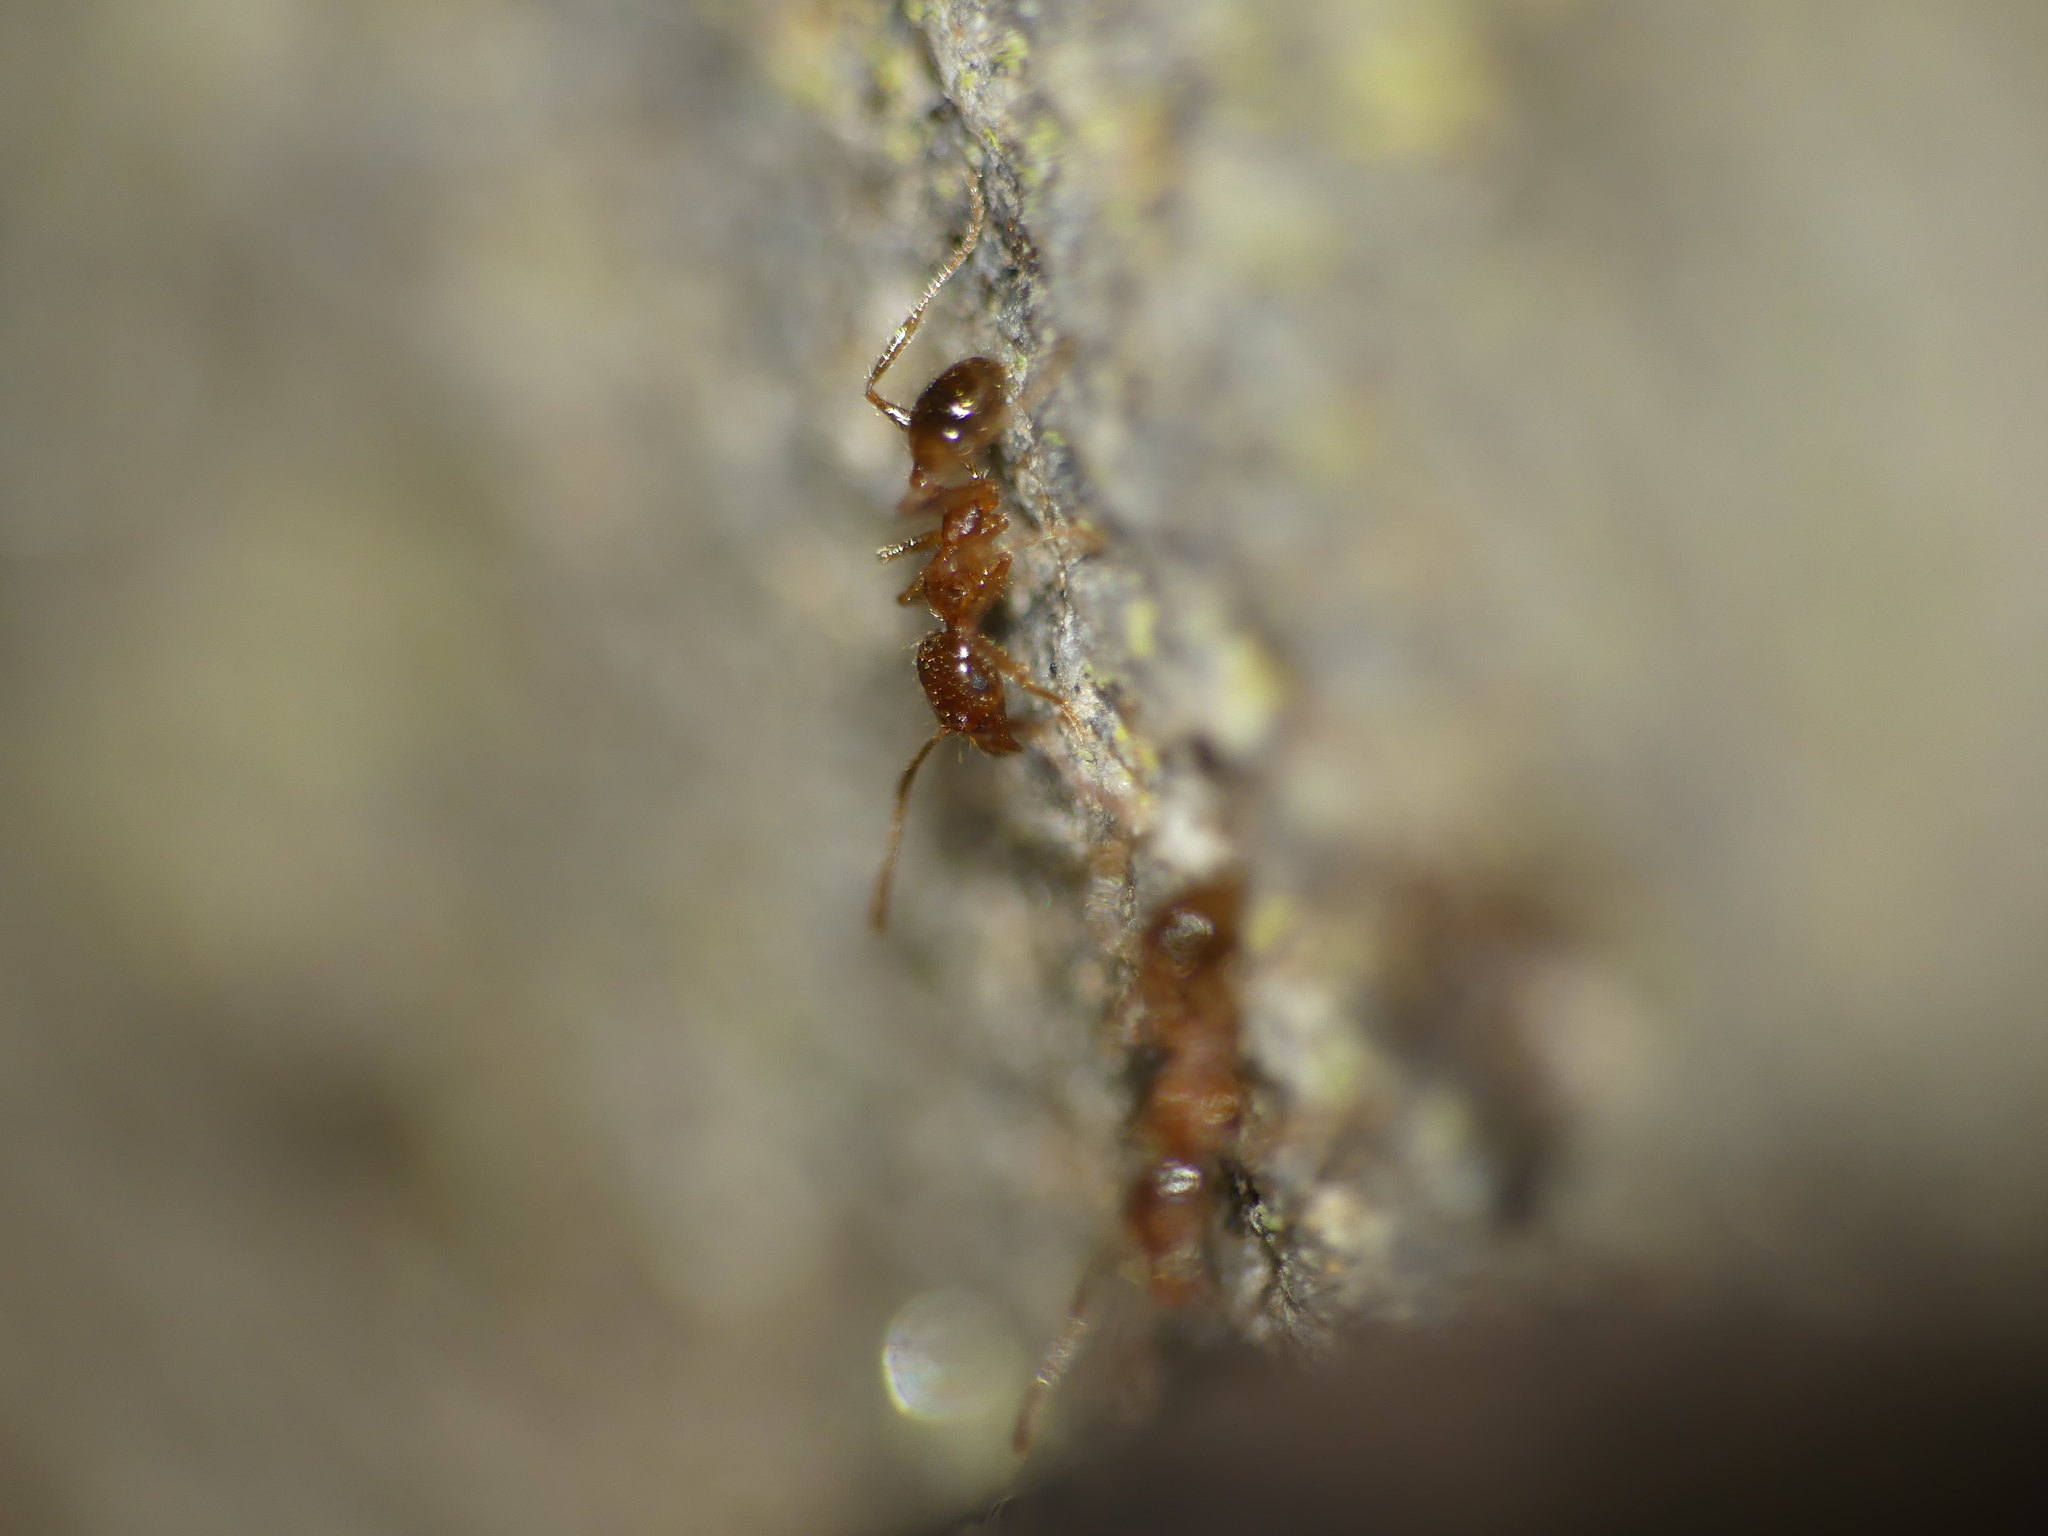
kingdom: Animalia
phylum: Arthropoda
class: Insecta
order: Hymenoptera
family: Formicidae
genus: Pheidole
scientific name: Pheidole pallidula
